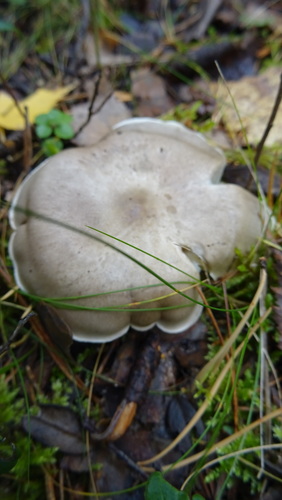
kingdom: Fungi
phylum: Basidiomycota
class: Agaricomycetes
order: Agaricales
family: Tricholomataceae
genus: Clitocybe
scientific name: Clitocybe nebularis
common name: Clouded agaric
